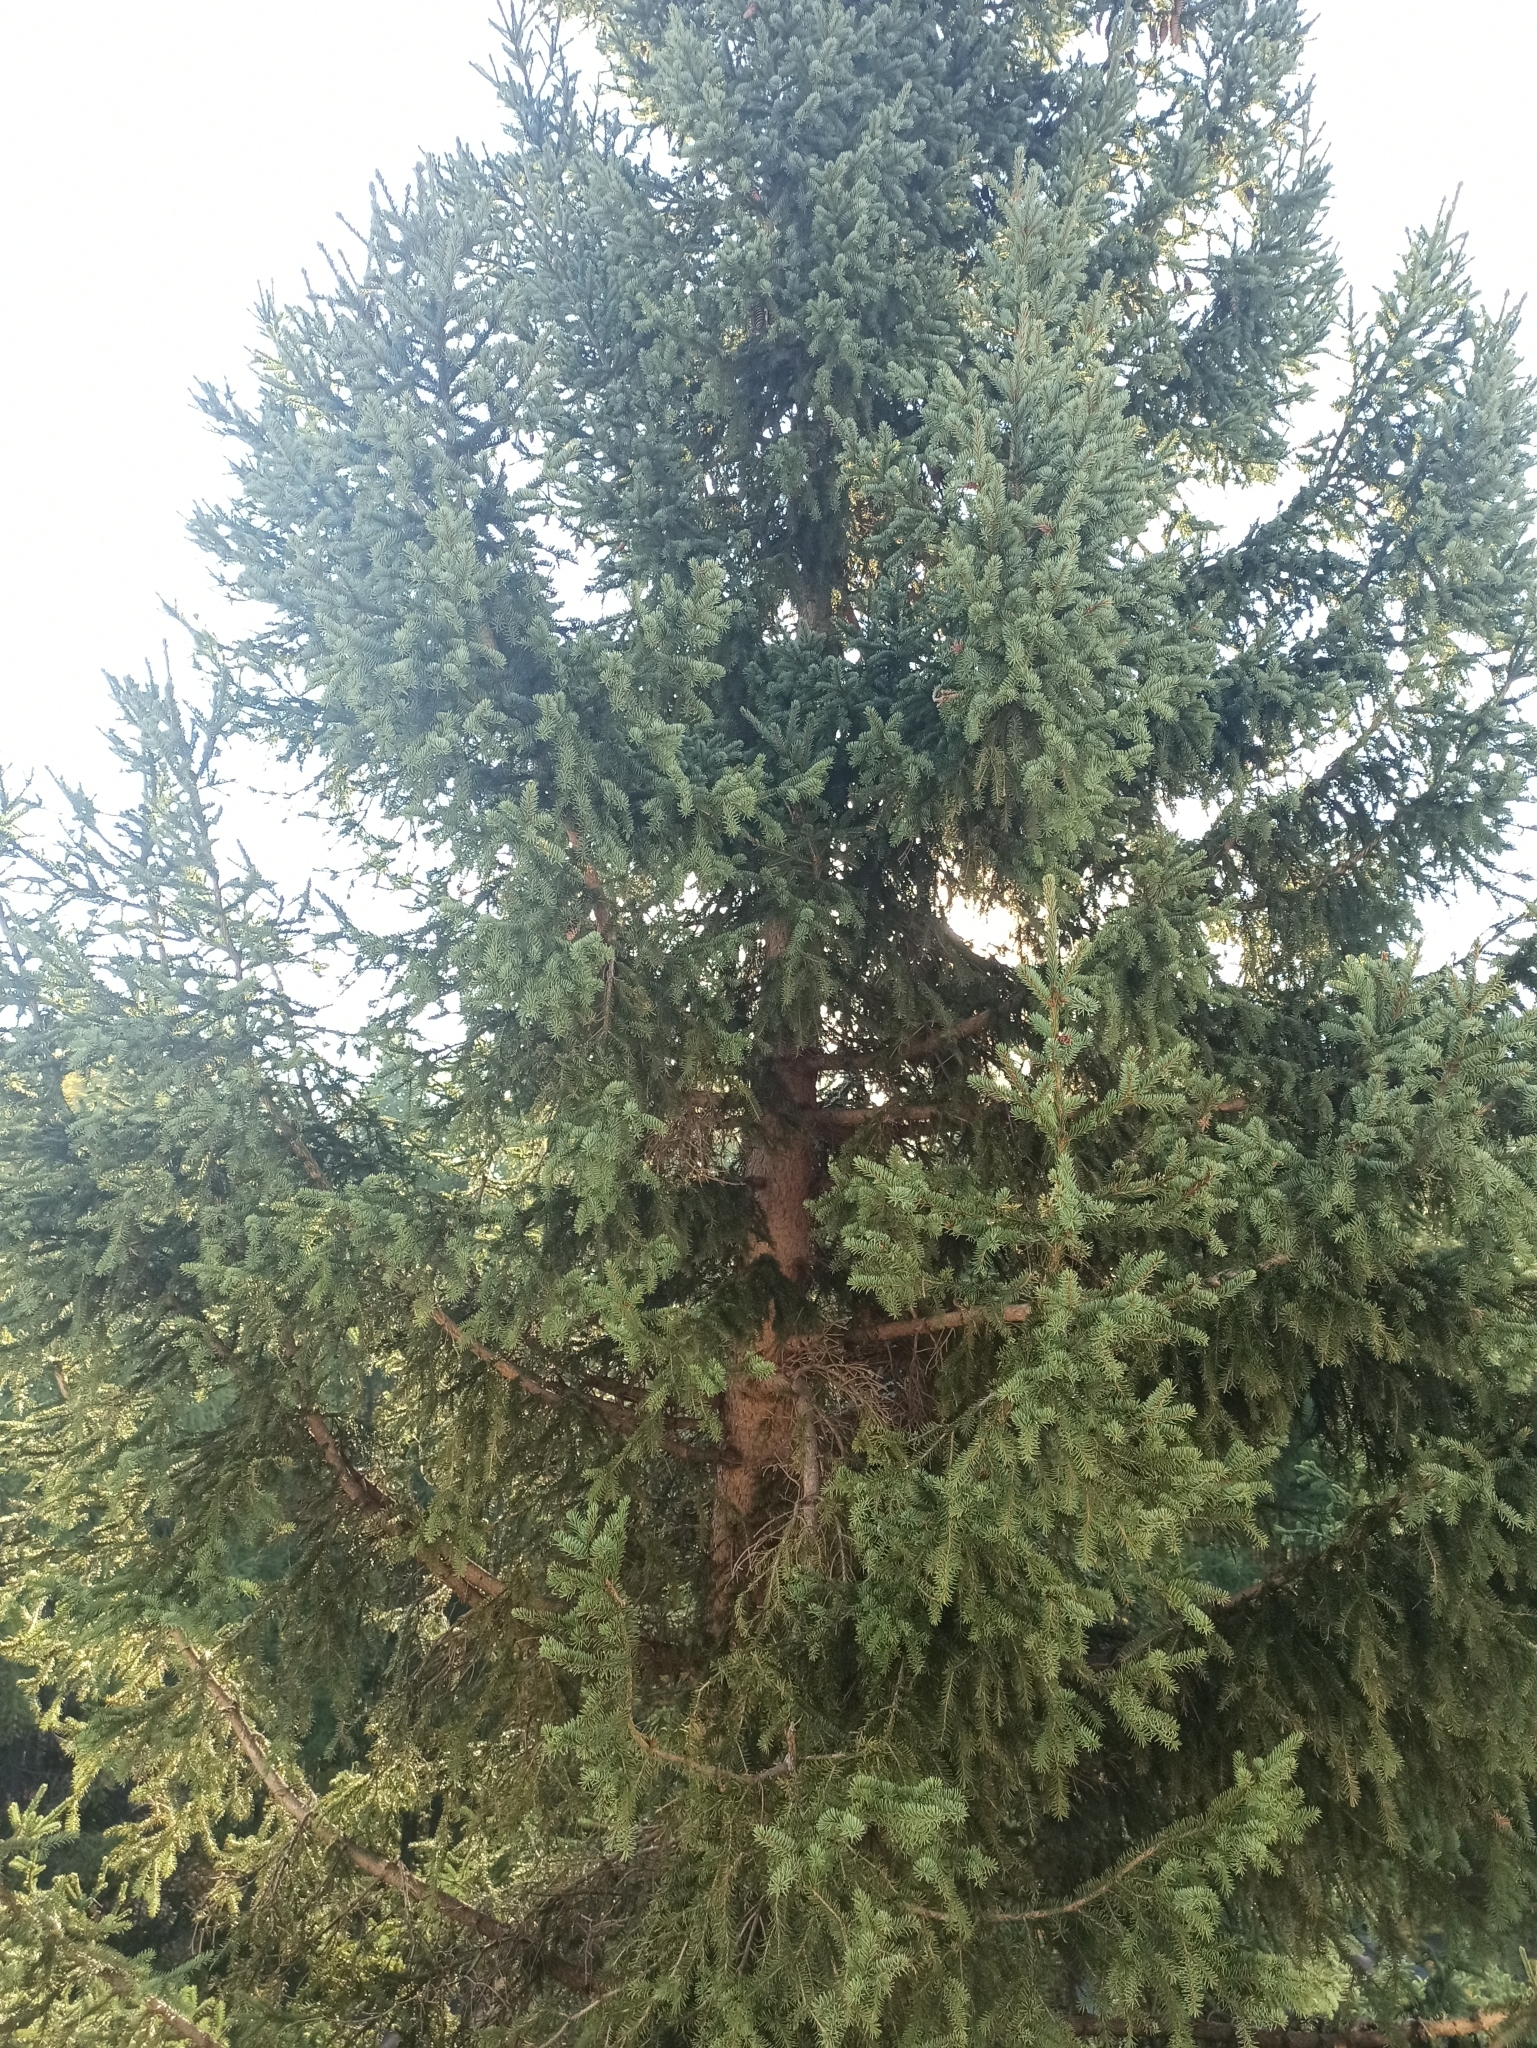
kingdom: Plantae
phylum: Tracheophyta
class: Pinopsida
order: Pinales
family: Pinaceae
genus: Picea
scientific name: Picea obovata
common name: Siberian spruce
